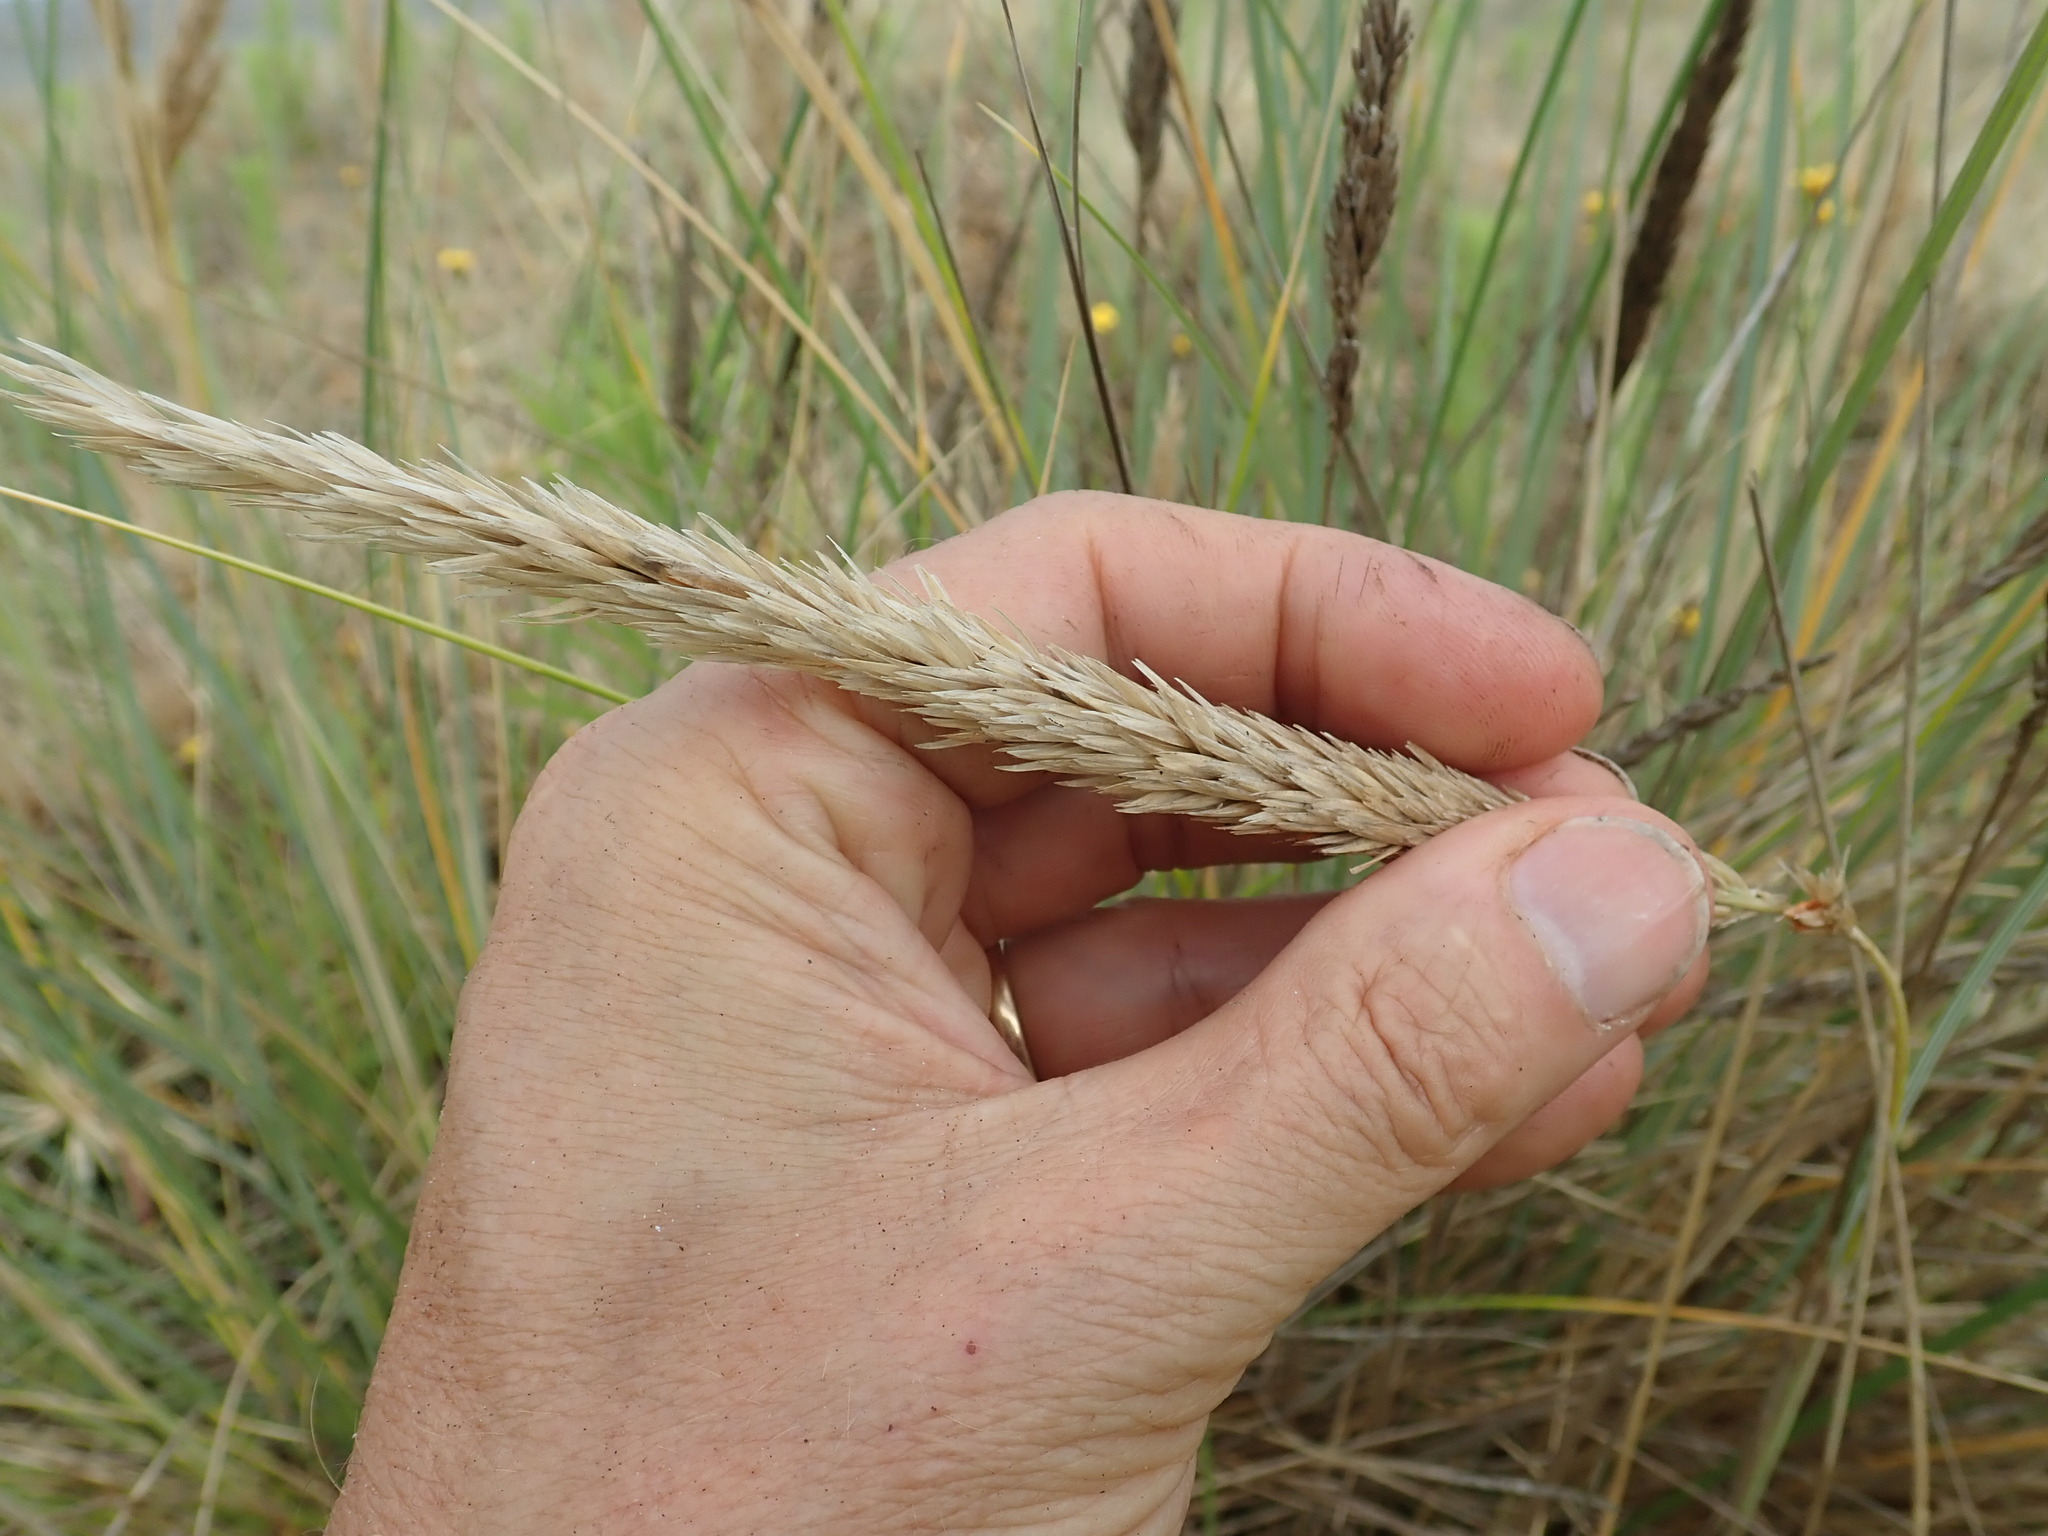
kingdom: Plantae
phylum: Tracheophyta
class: Liliopsida
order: Poales
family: Poaceae
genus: Calamagrostis
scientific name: Calamagrostis arenaria
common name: European beachgrass
